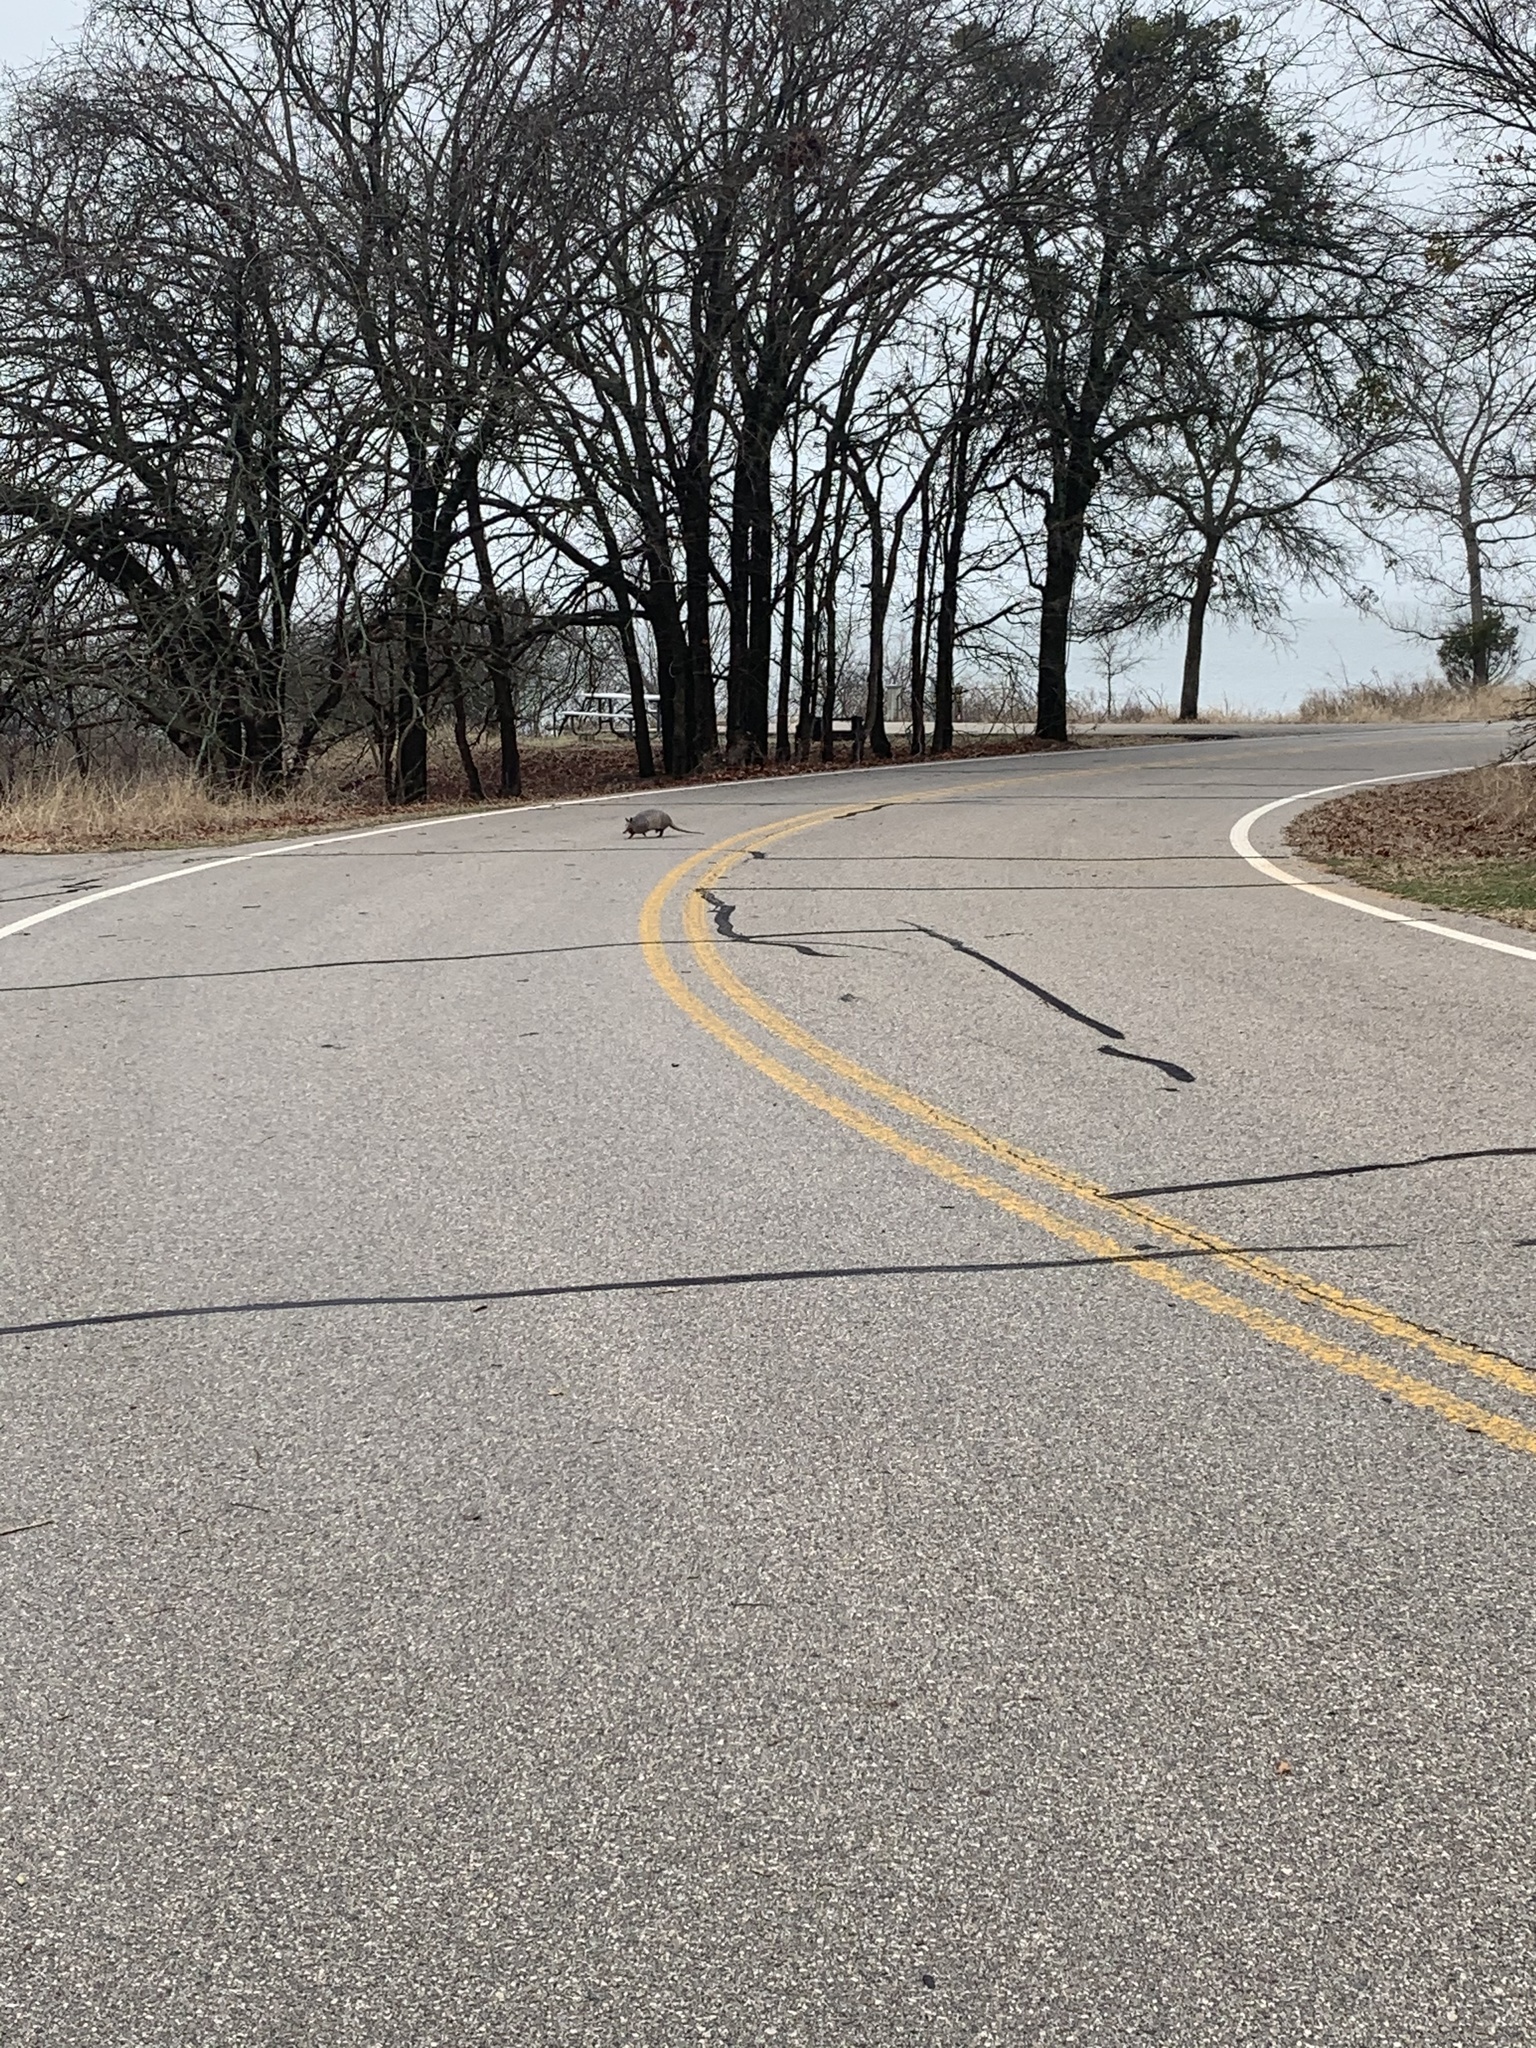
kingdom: Animalia
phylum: Chordata
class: Mammalia
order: Cingulata
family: Dasypodidae
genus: Dasypus
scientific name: Dasypus novemcinctus
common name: Nine-banded armadillo
